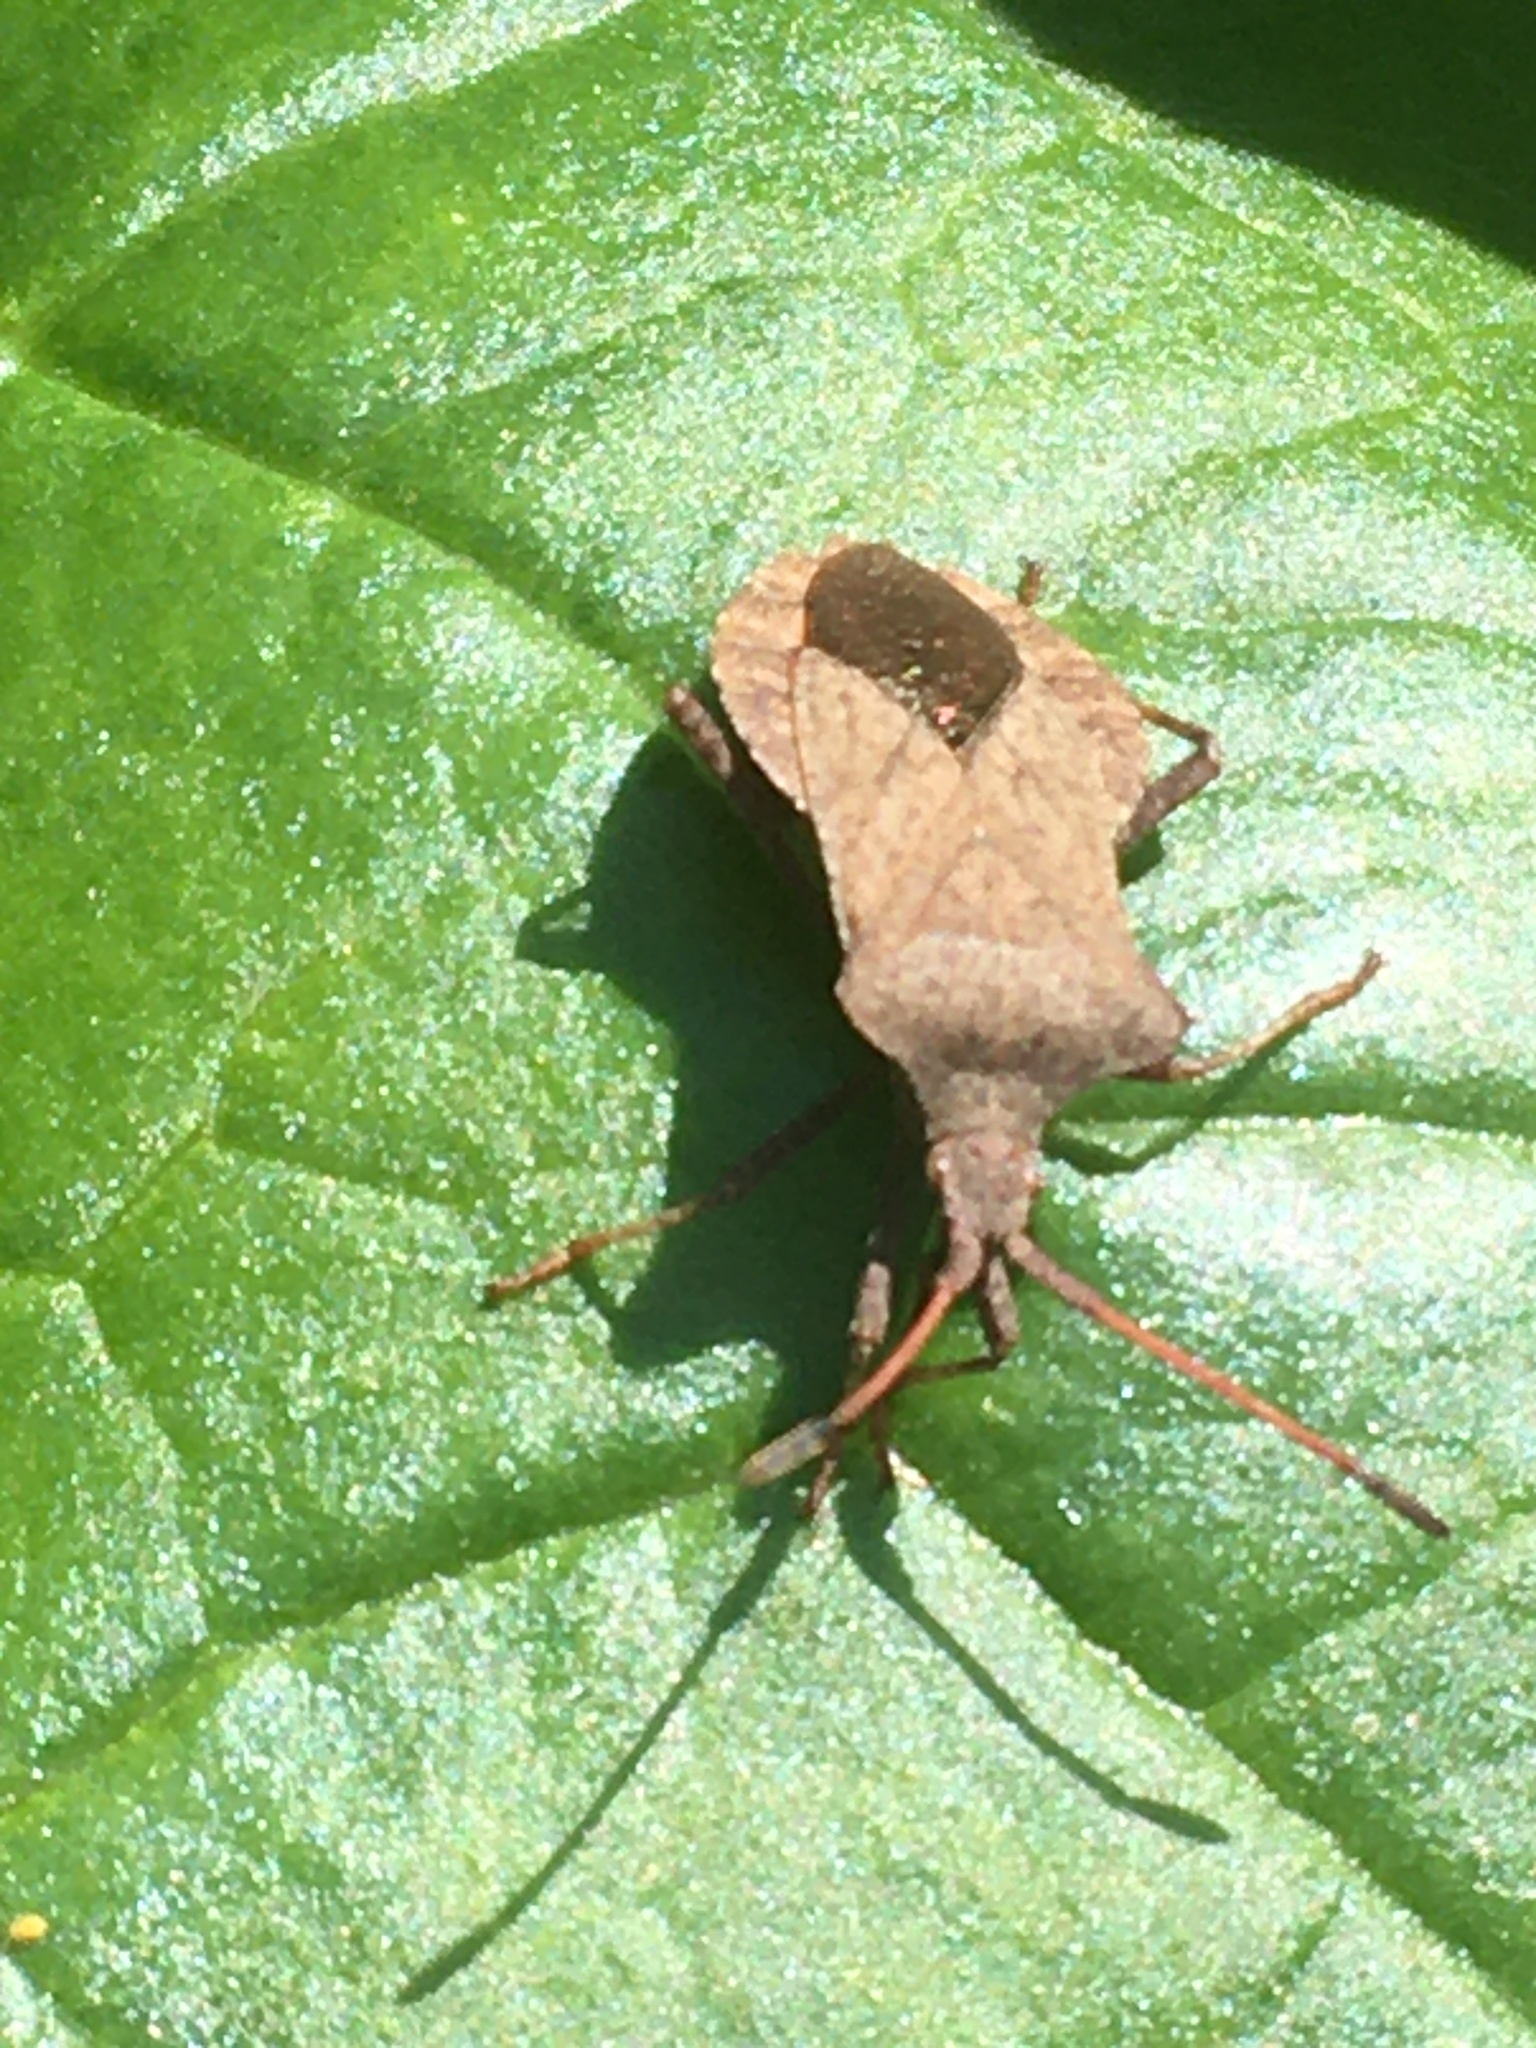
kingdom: Animalia
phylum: Arthropoda
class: Insecta
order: Hemiptera
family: Coreidae
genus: Coreus
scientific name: Coreus marginatus
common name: Dock bug
